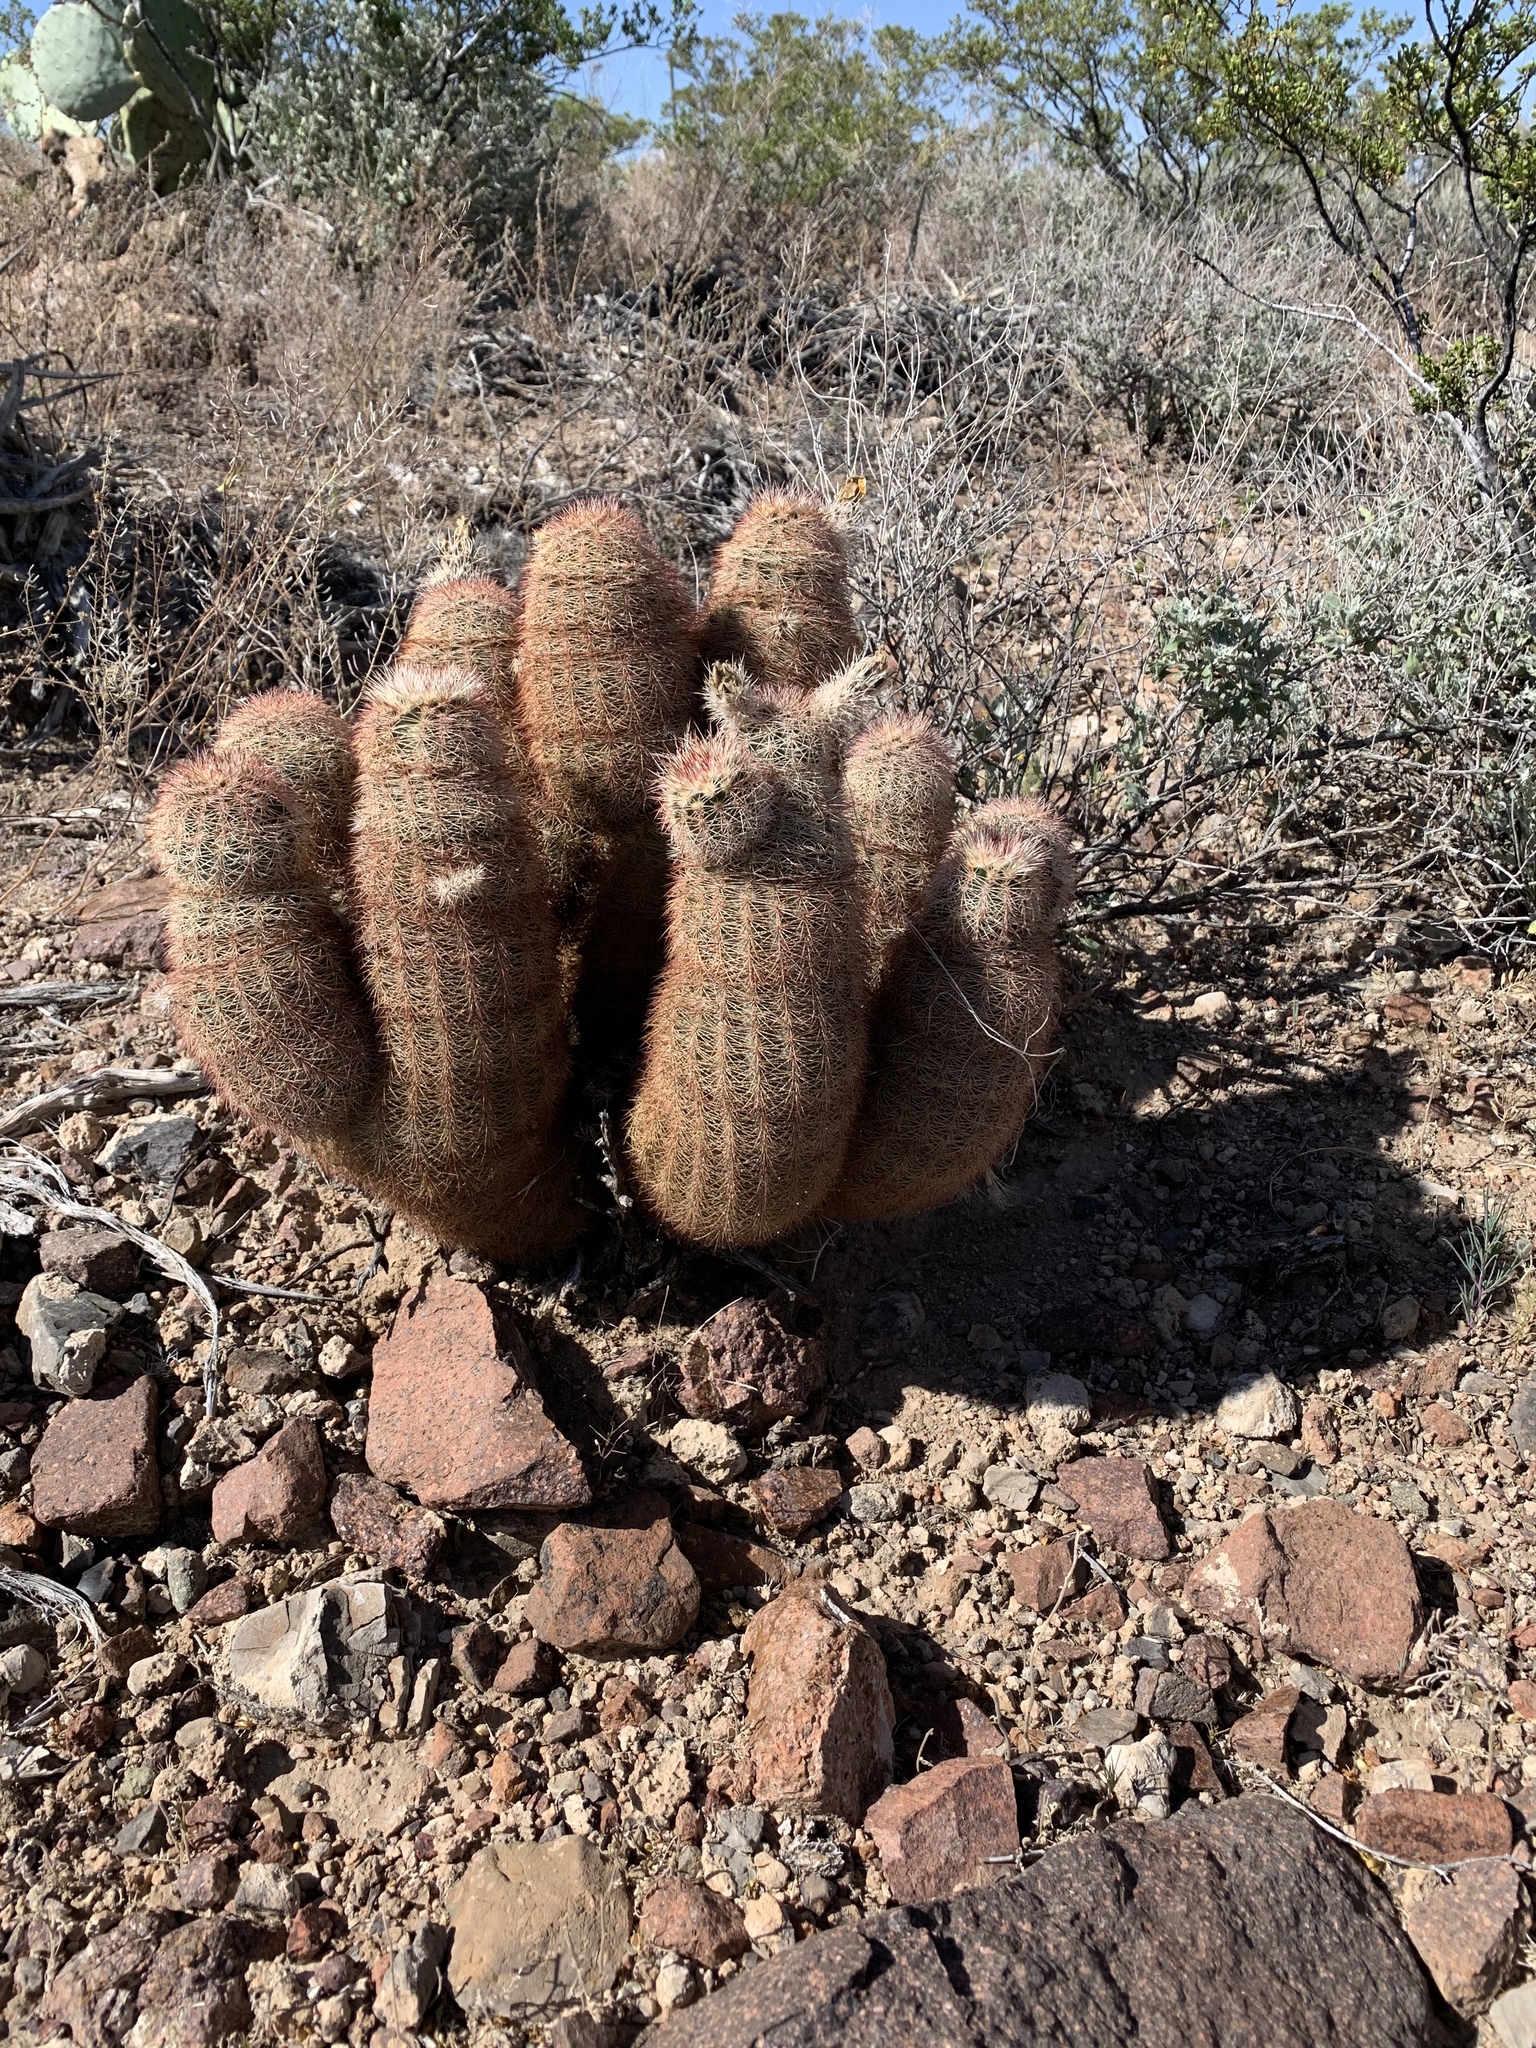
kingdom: Plantae
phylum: Tracheophyta
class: Magnoliopsida
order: Caryophyllales
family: Cactaceae
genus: Echinocereus
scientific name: Echinocereus dasyacanthus
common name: Spiny hedgehog cactus
